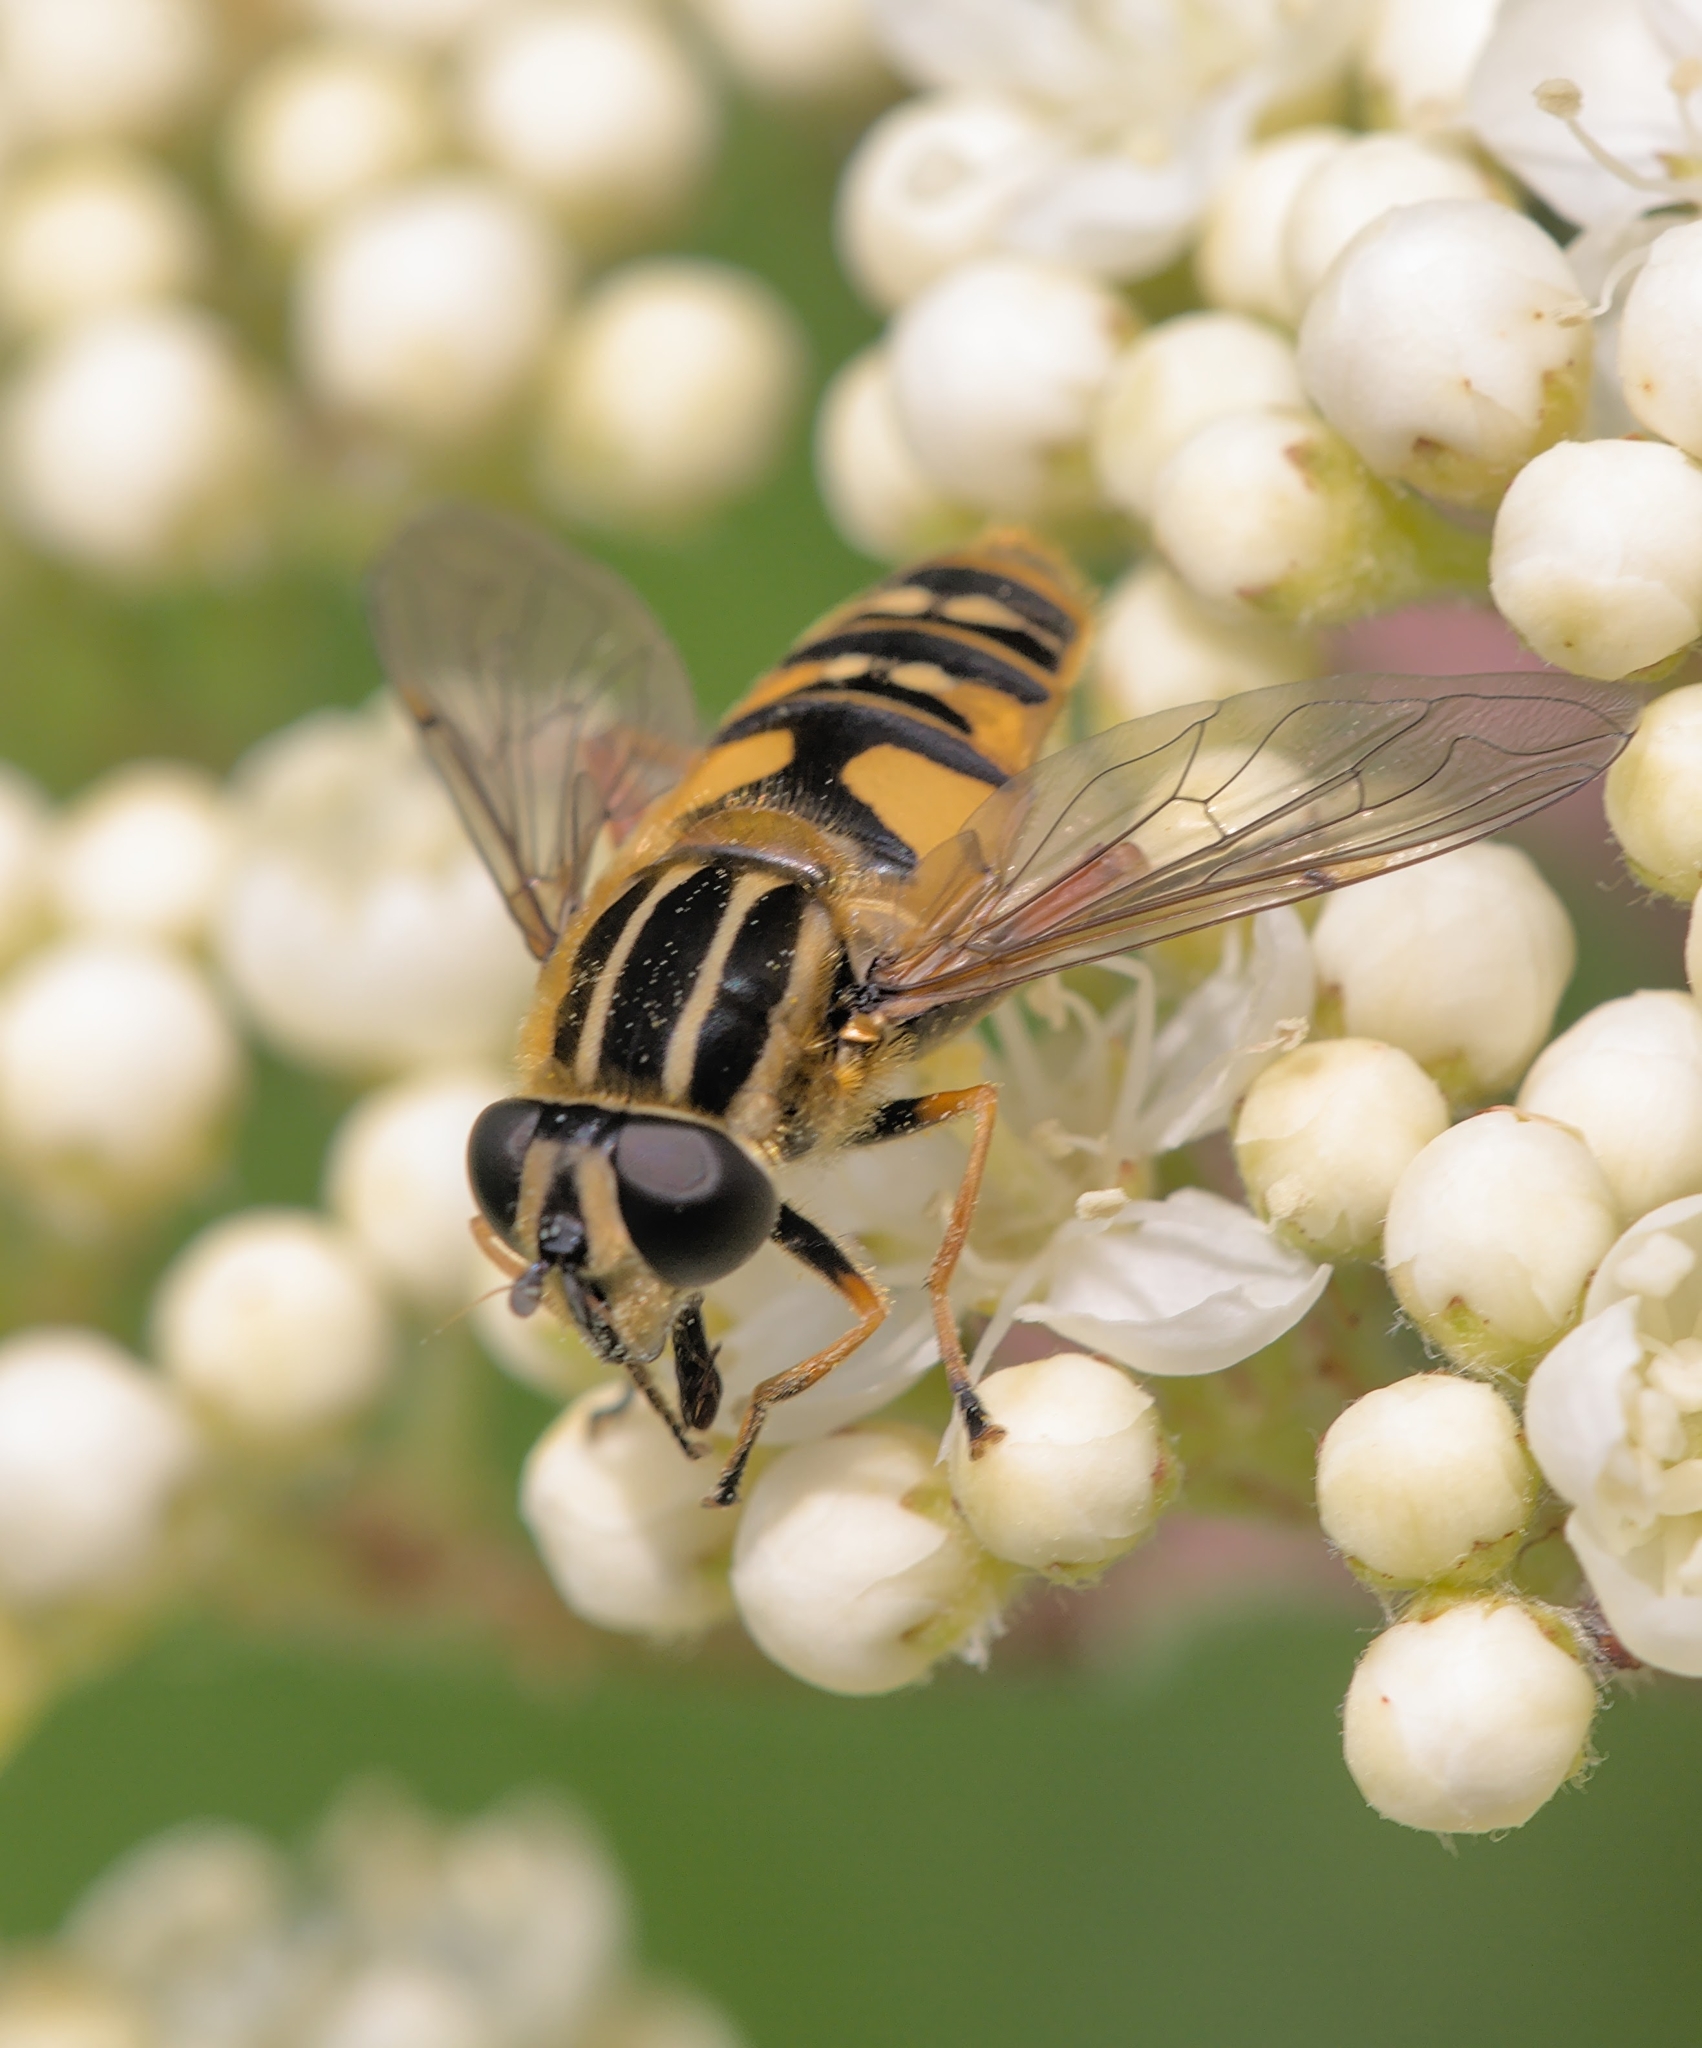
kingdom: Animalia
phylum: Arthropoda
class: Insecta
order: Diptera
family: Syrphidae
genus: Helophilus
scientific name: Helophilus pendulus
